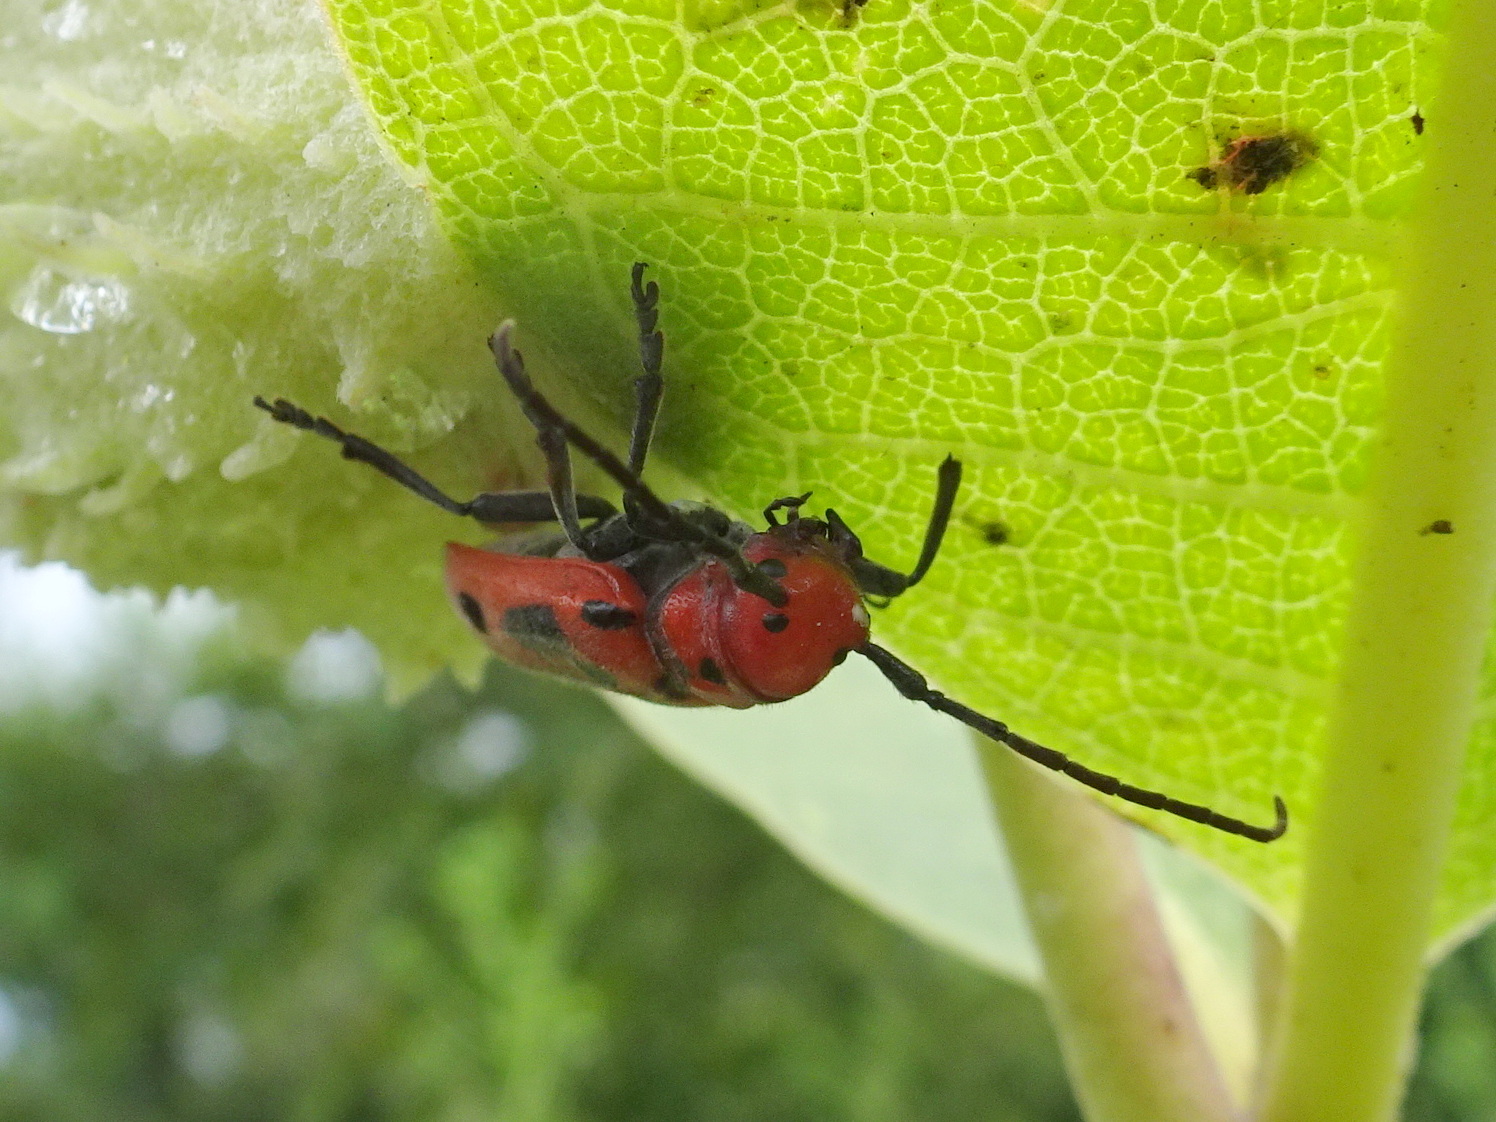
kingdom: Animalia
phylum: Arthropoda
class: Insecta
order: Coleoptera
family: Cerambycidae
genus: Tetraopes
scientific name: Tetraopes tetrophthalmus
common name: Red milkweed beetle
